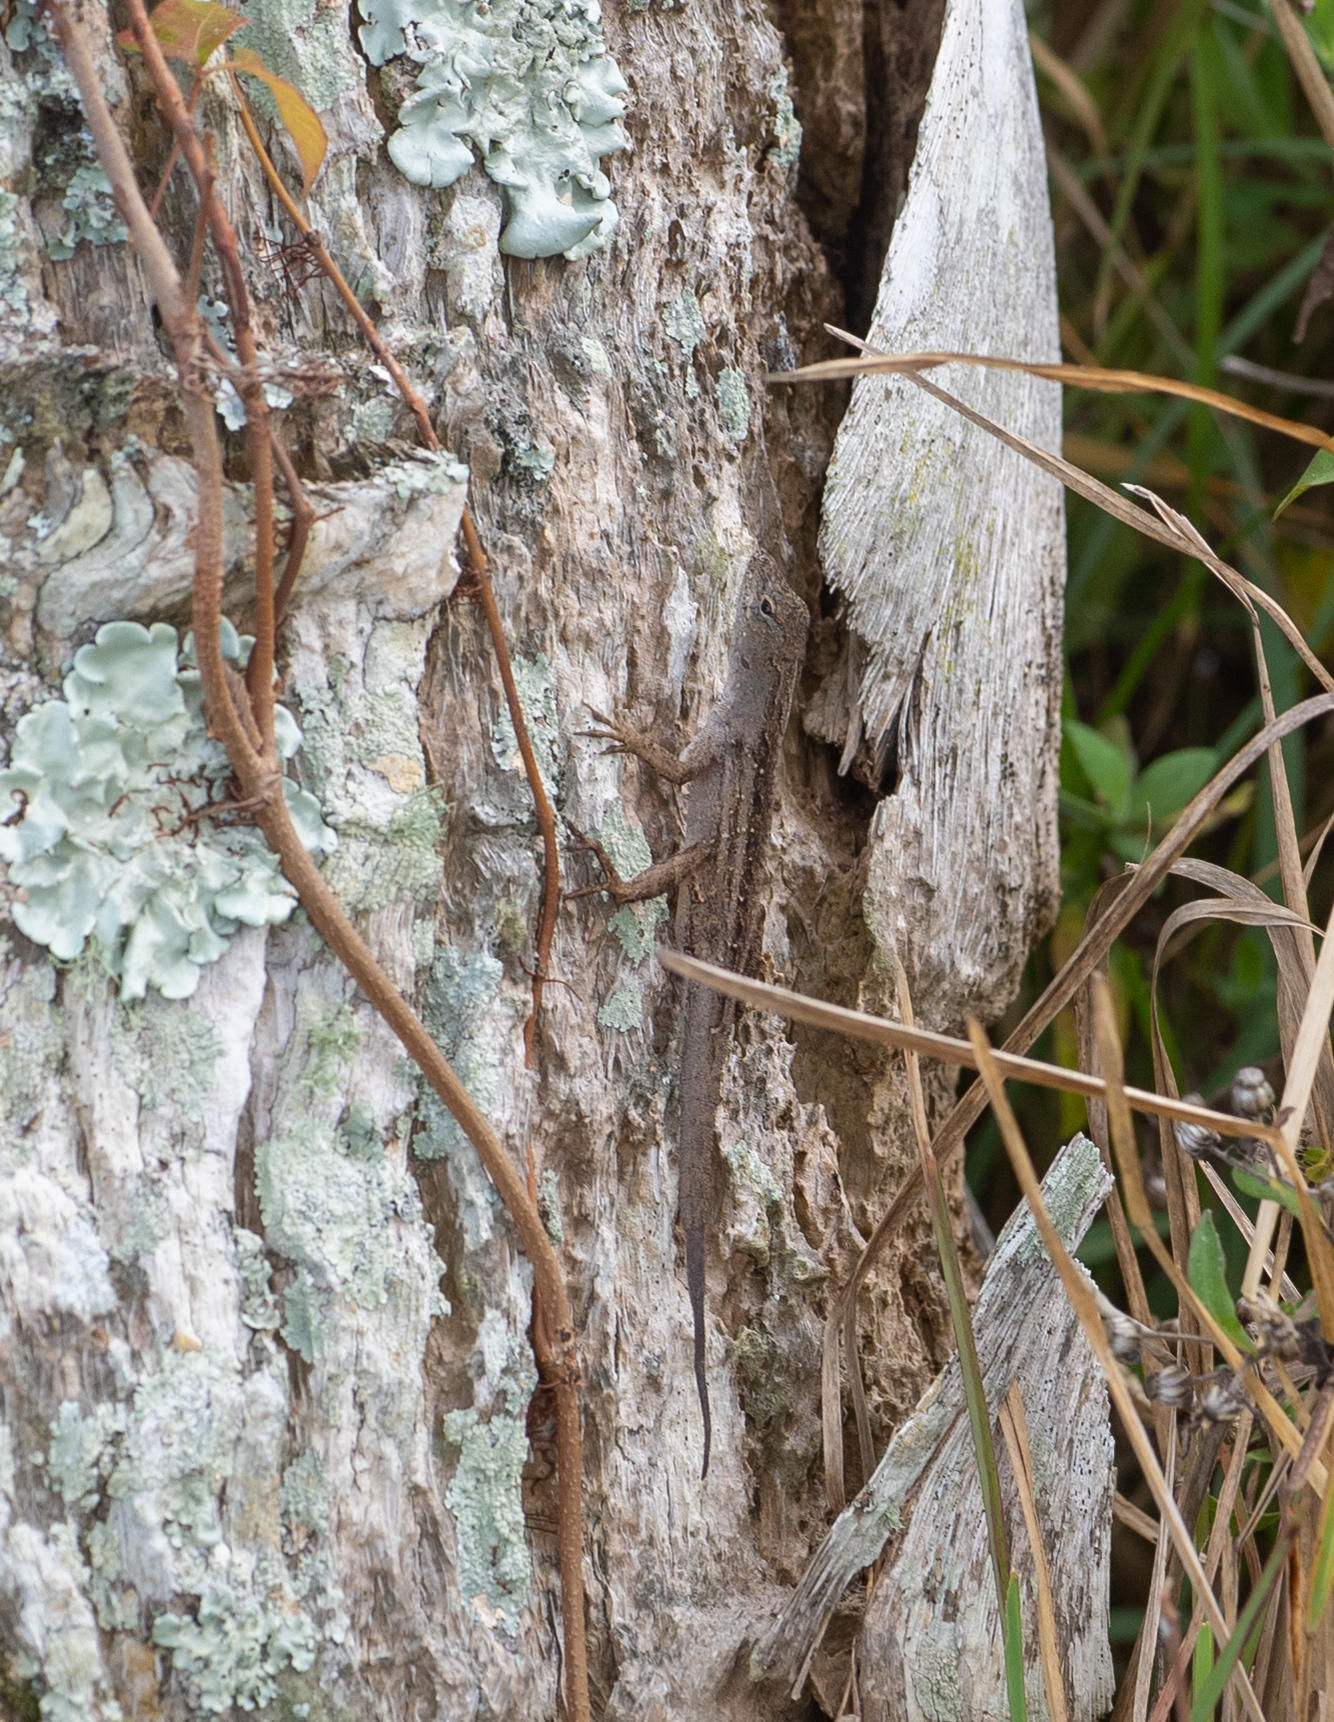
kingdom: Animalia
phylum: Chordata
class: Squamata
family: Dactyloidae
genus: Anolis
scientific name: Anolis sagrei
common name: Brown anole
